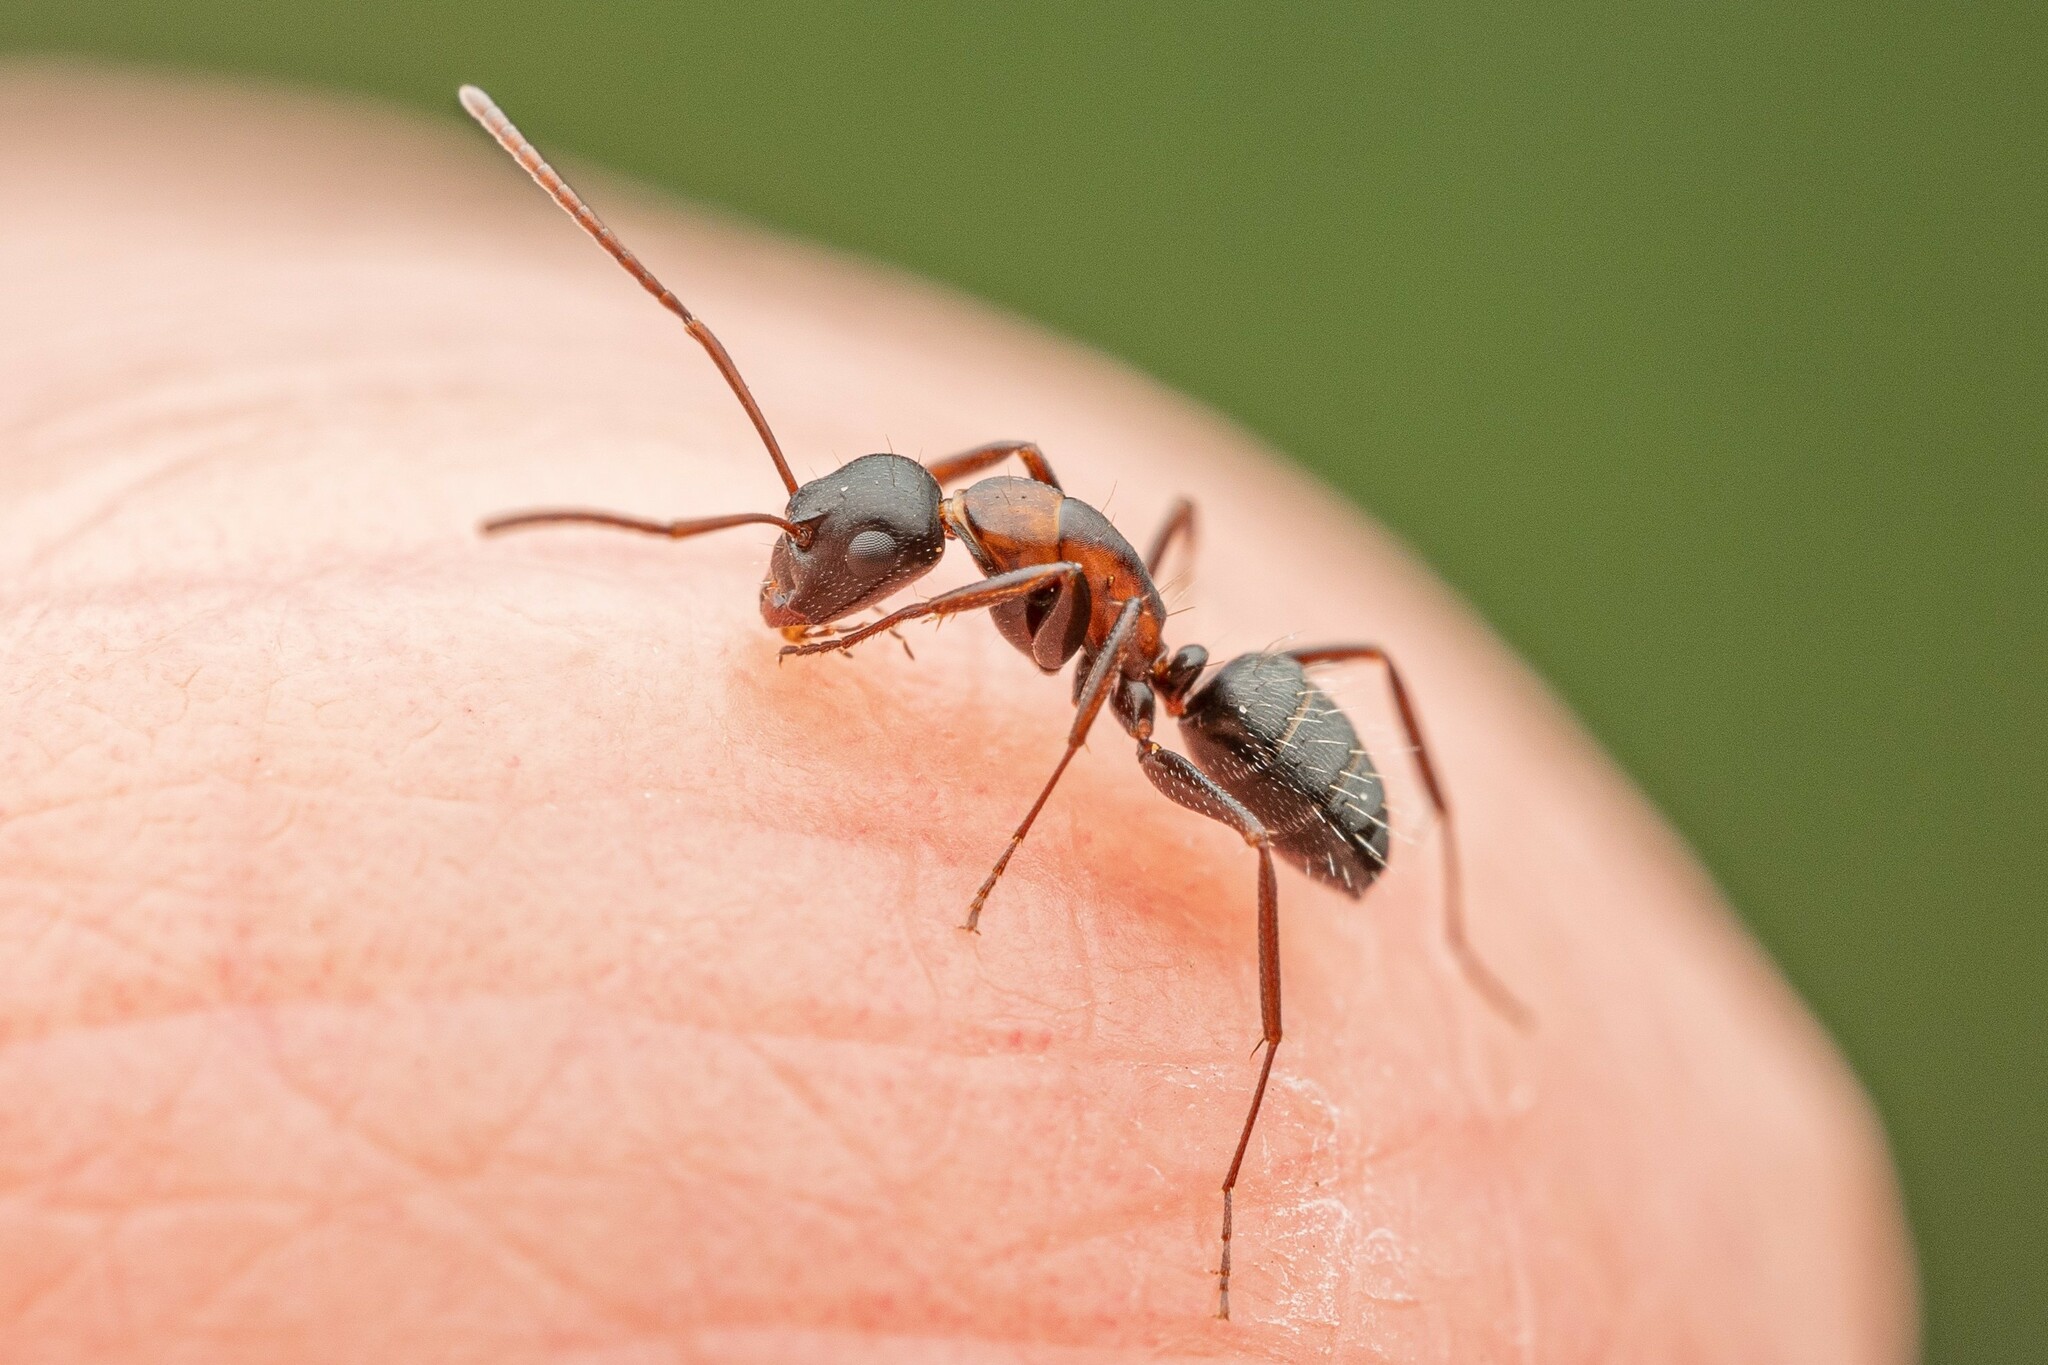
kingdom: Animalia
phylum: Arthropoda
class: Insecta
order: Hymenoptera
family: Formicidae
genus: Camponotus
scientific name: Camponotus anthrax
